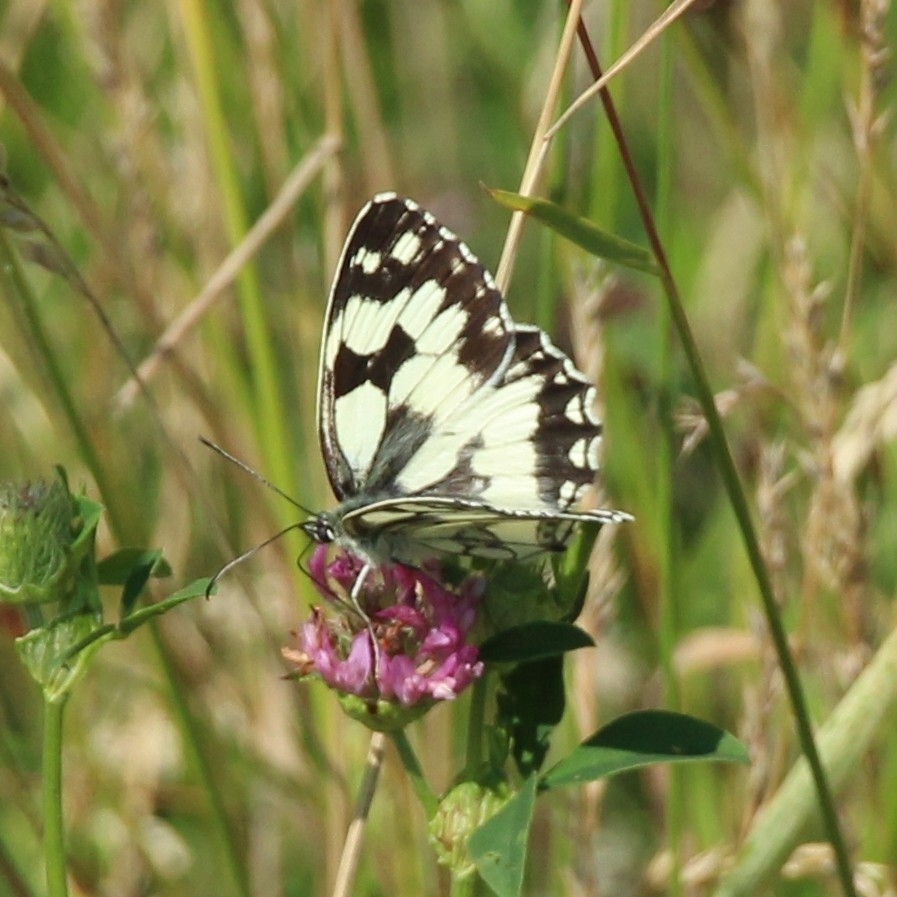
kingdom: Animalia
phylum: Arthropoda
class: Insecta
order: Lepidoptera
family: Nymphalidae
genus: Melanargia
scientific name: Melanargia galathea
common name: Marbled white
